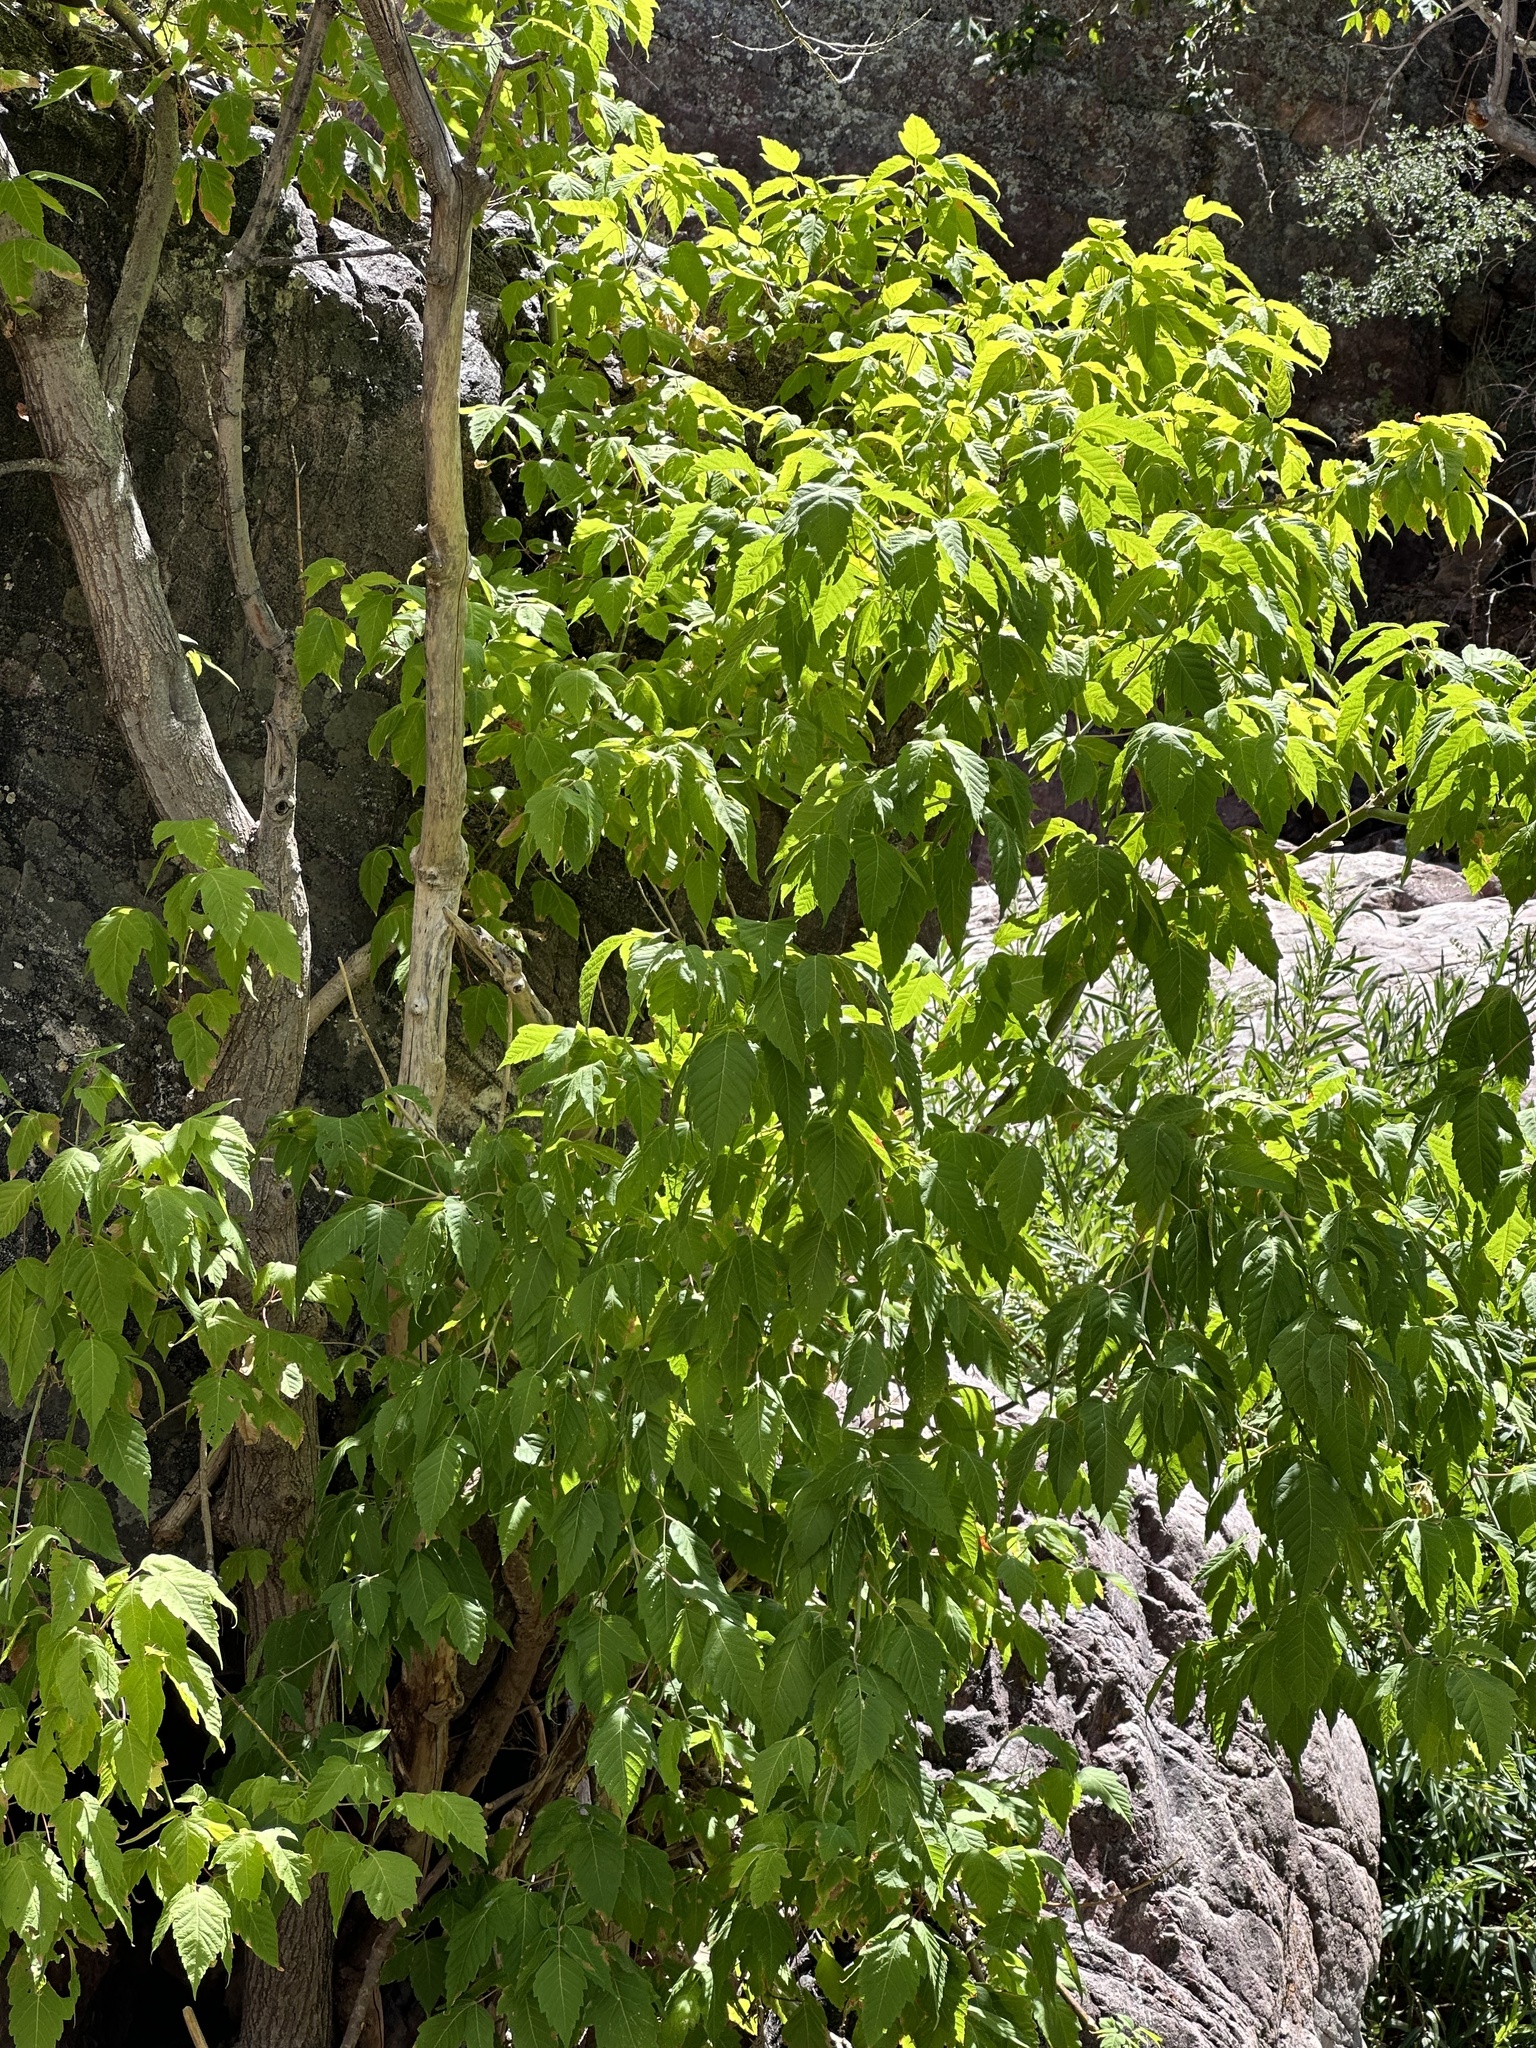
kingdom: Plantae
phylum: Tracheophyta
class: Magnoliopsida
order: Sapindales
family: Sapindaceae
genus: Acer
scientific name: Acer negundo
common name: Ashleaf maple
